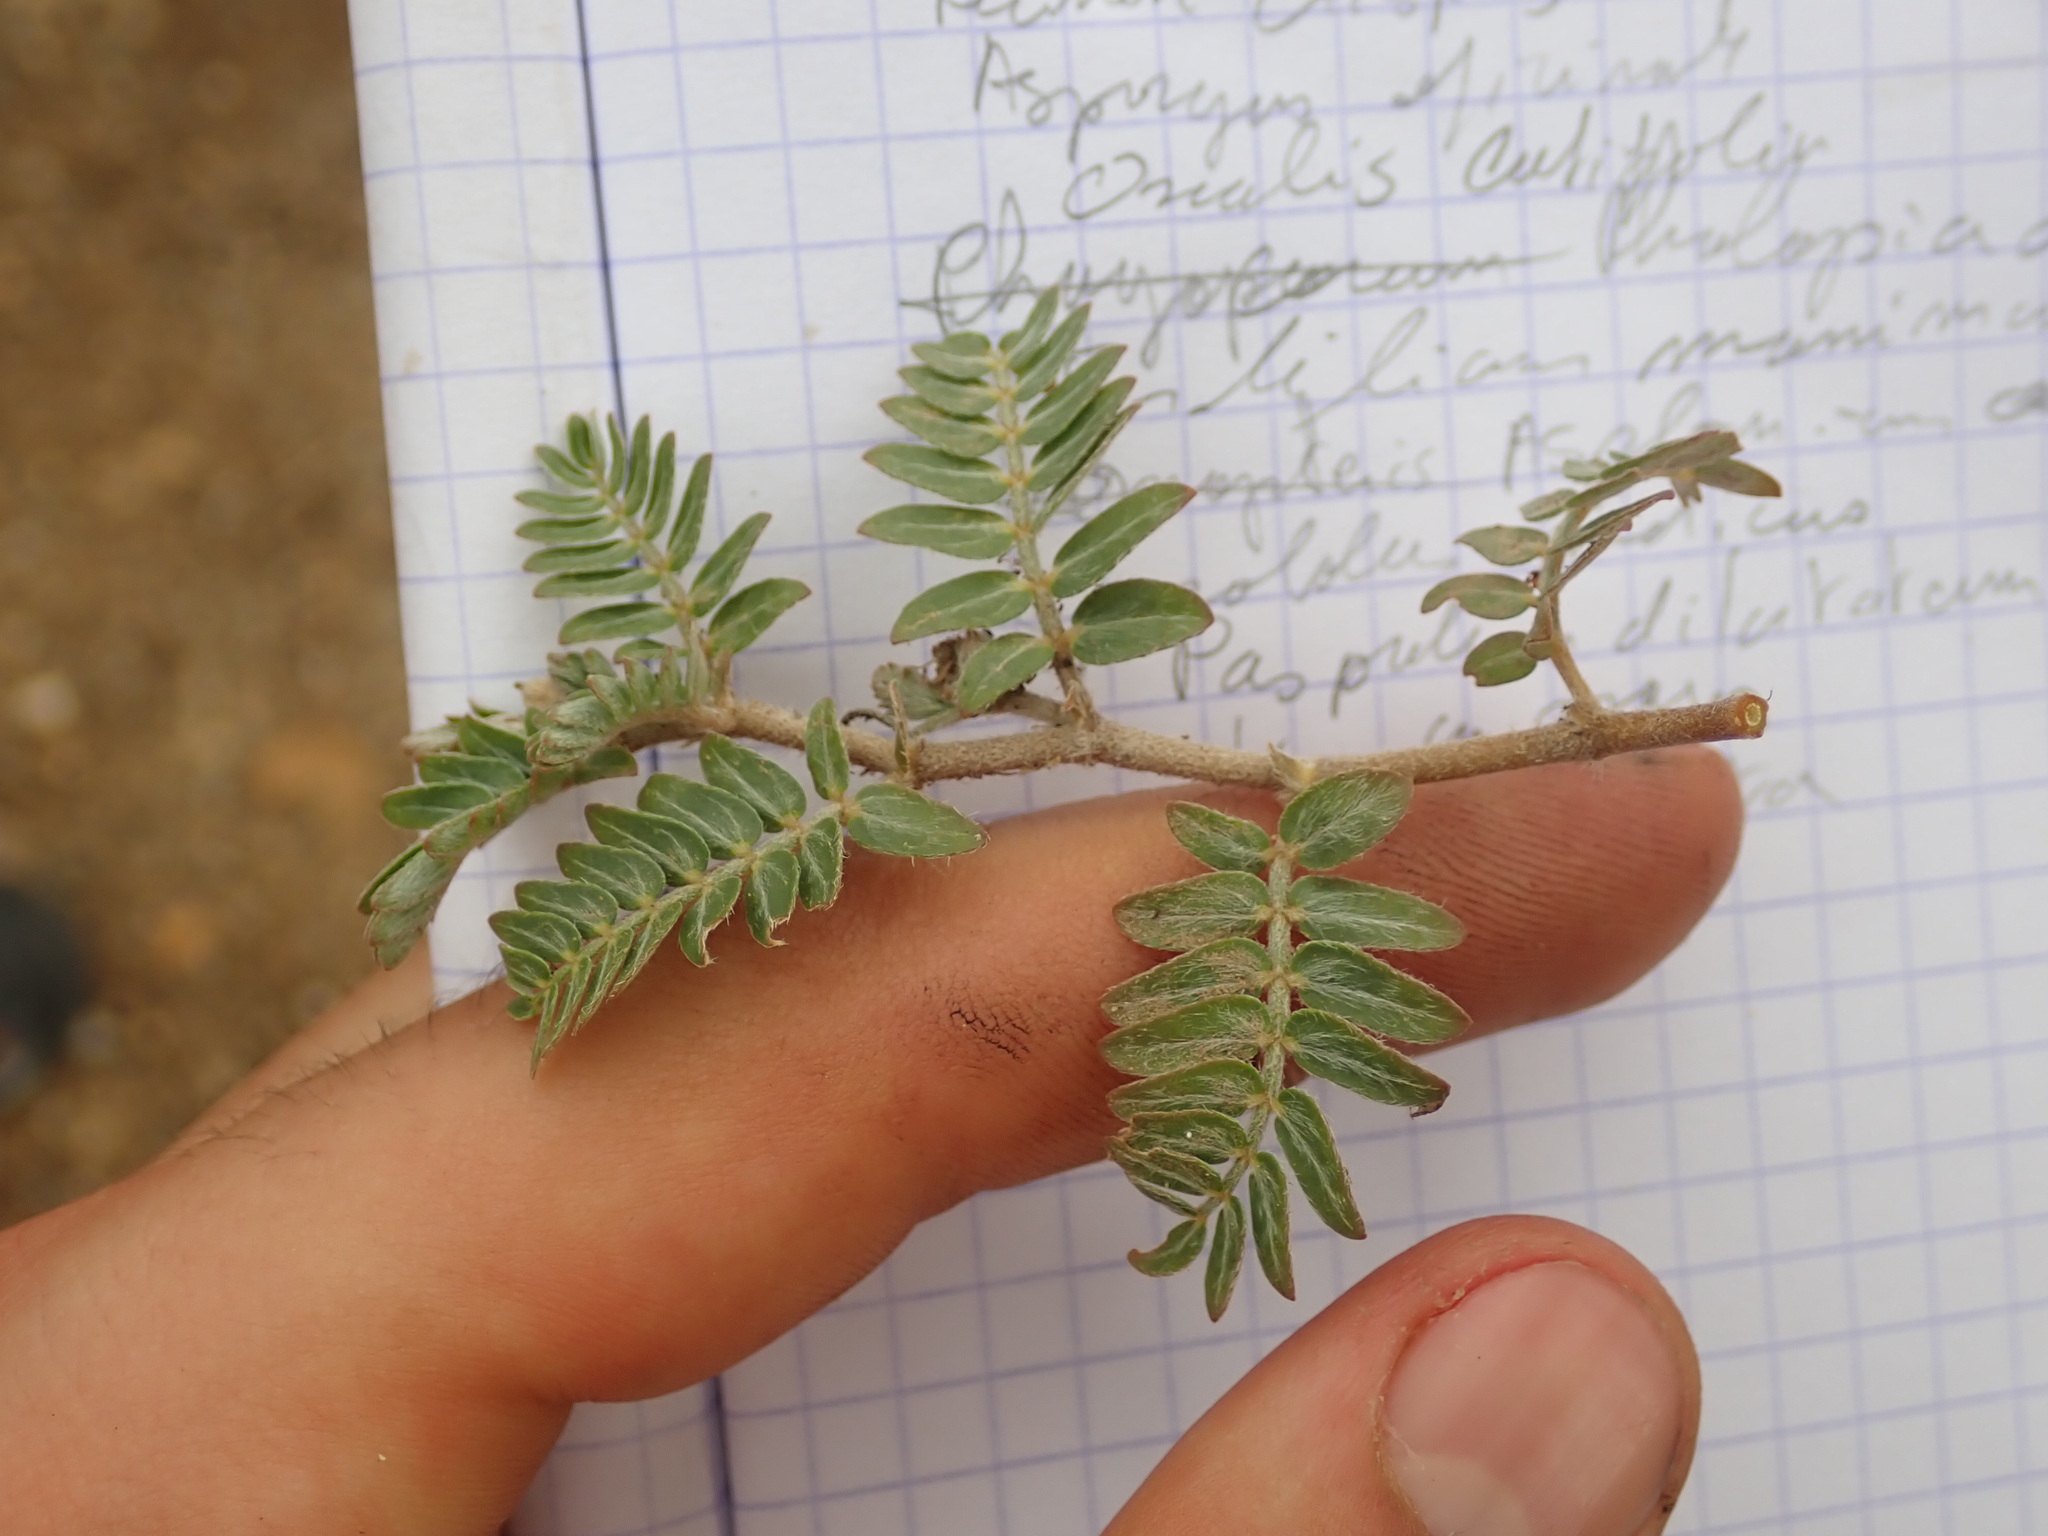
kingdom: Plantae
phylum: Tracheophyta
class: Magnoliopsida
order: Zygophyllales
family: Zygophyllaceae
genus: Tribulus
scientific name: Tribulus terrestris
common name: Puncturevine
